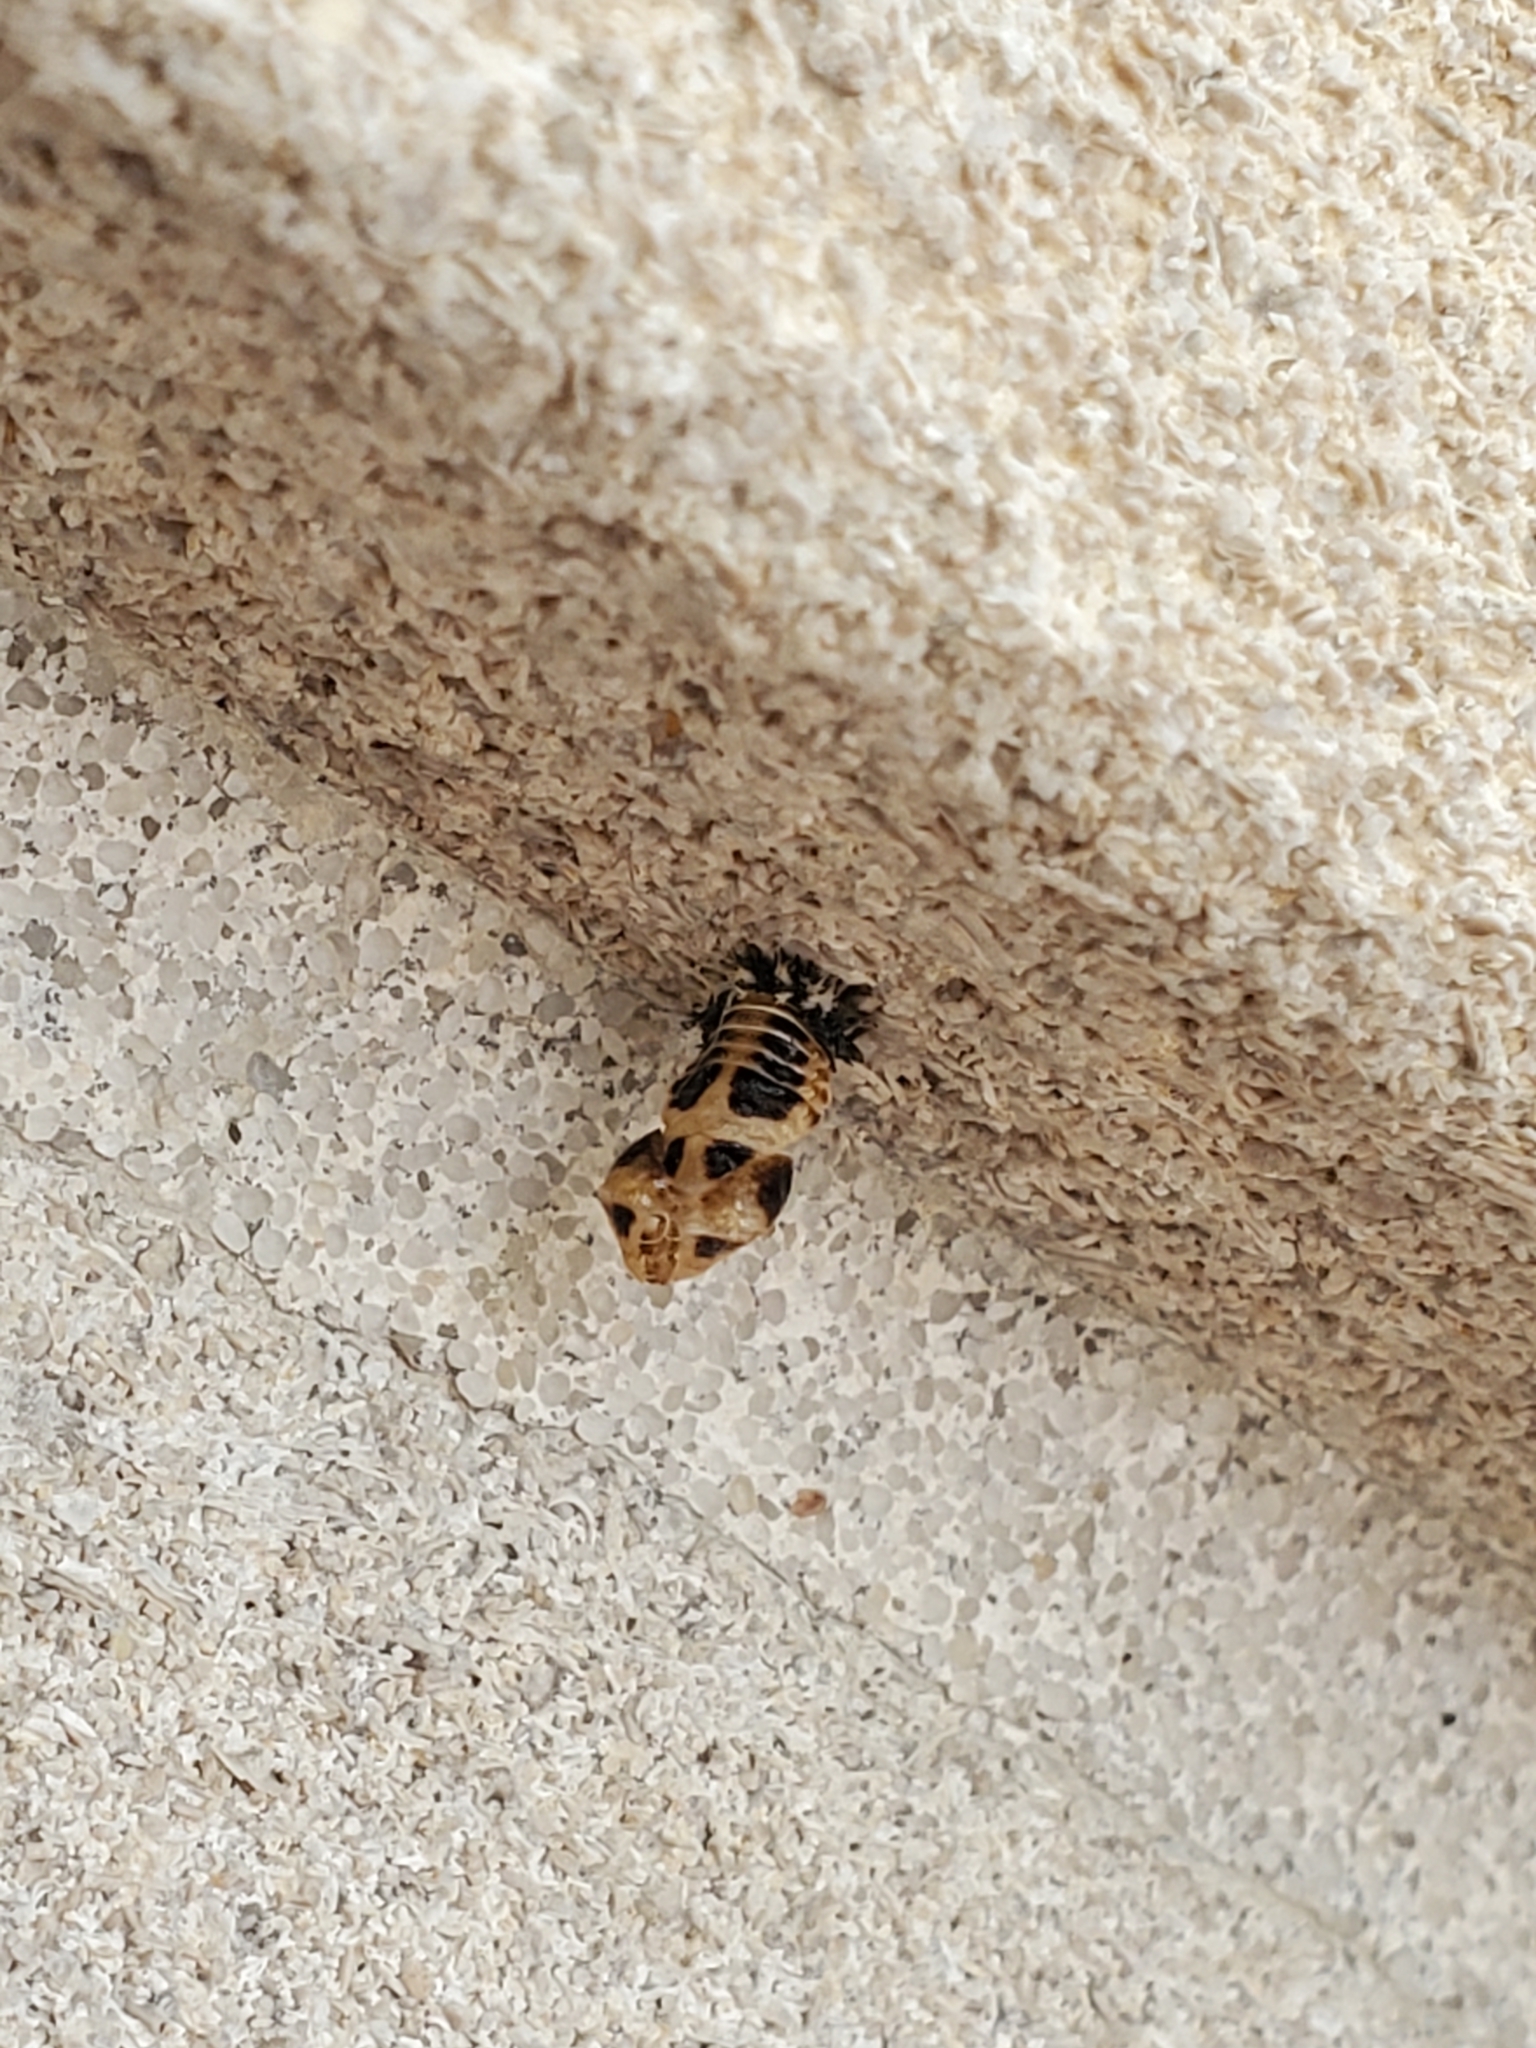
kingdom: Animalia
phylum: Arthropoda
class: Insecta
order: Coleoptera
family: Coccinellidae
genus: Harmonia
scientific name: Harmonia axyridis
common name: Harlequin ladybird
